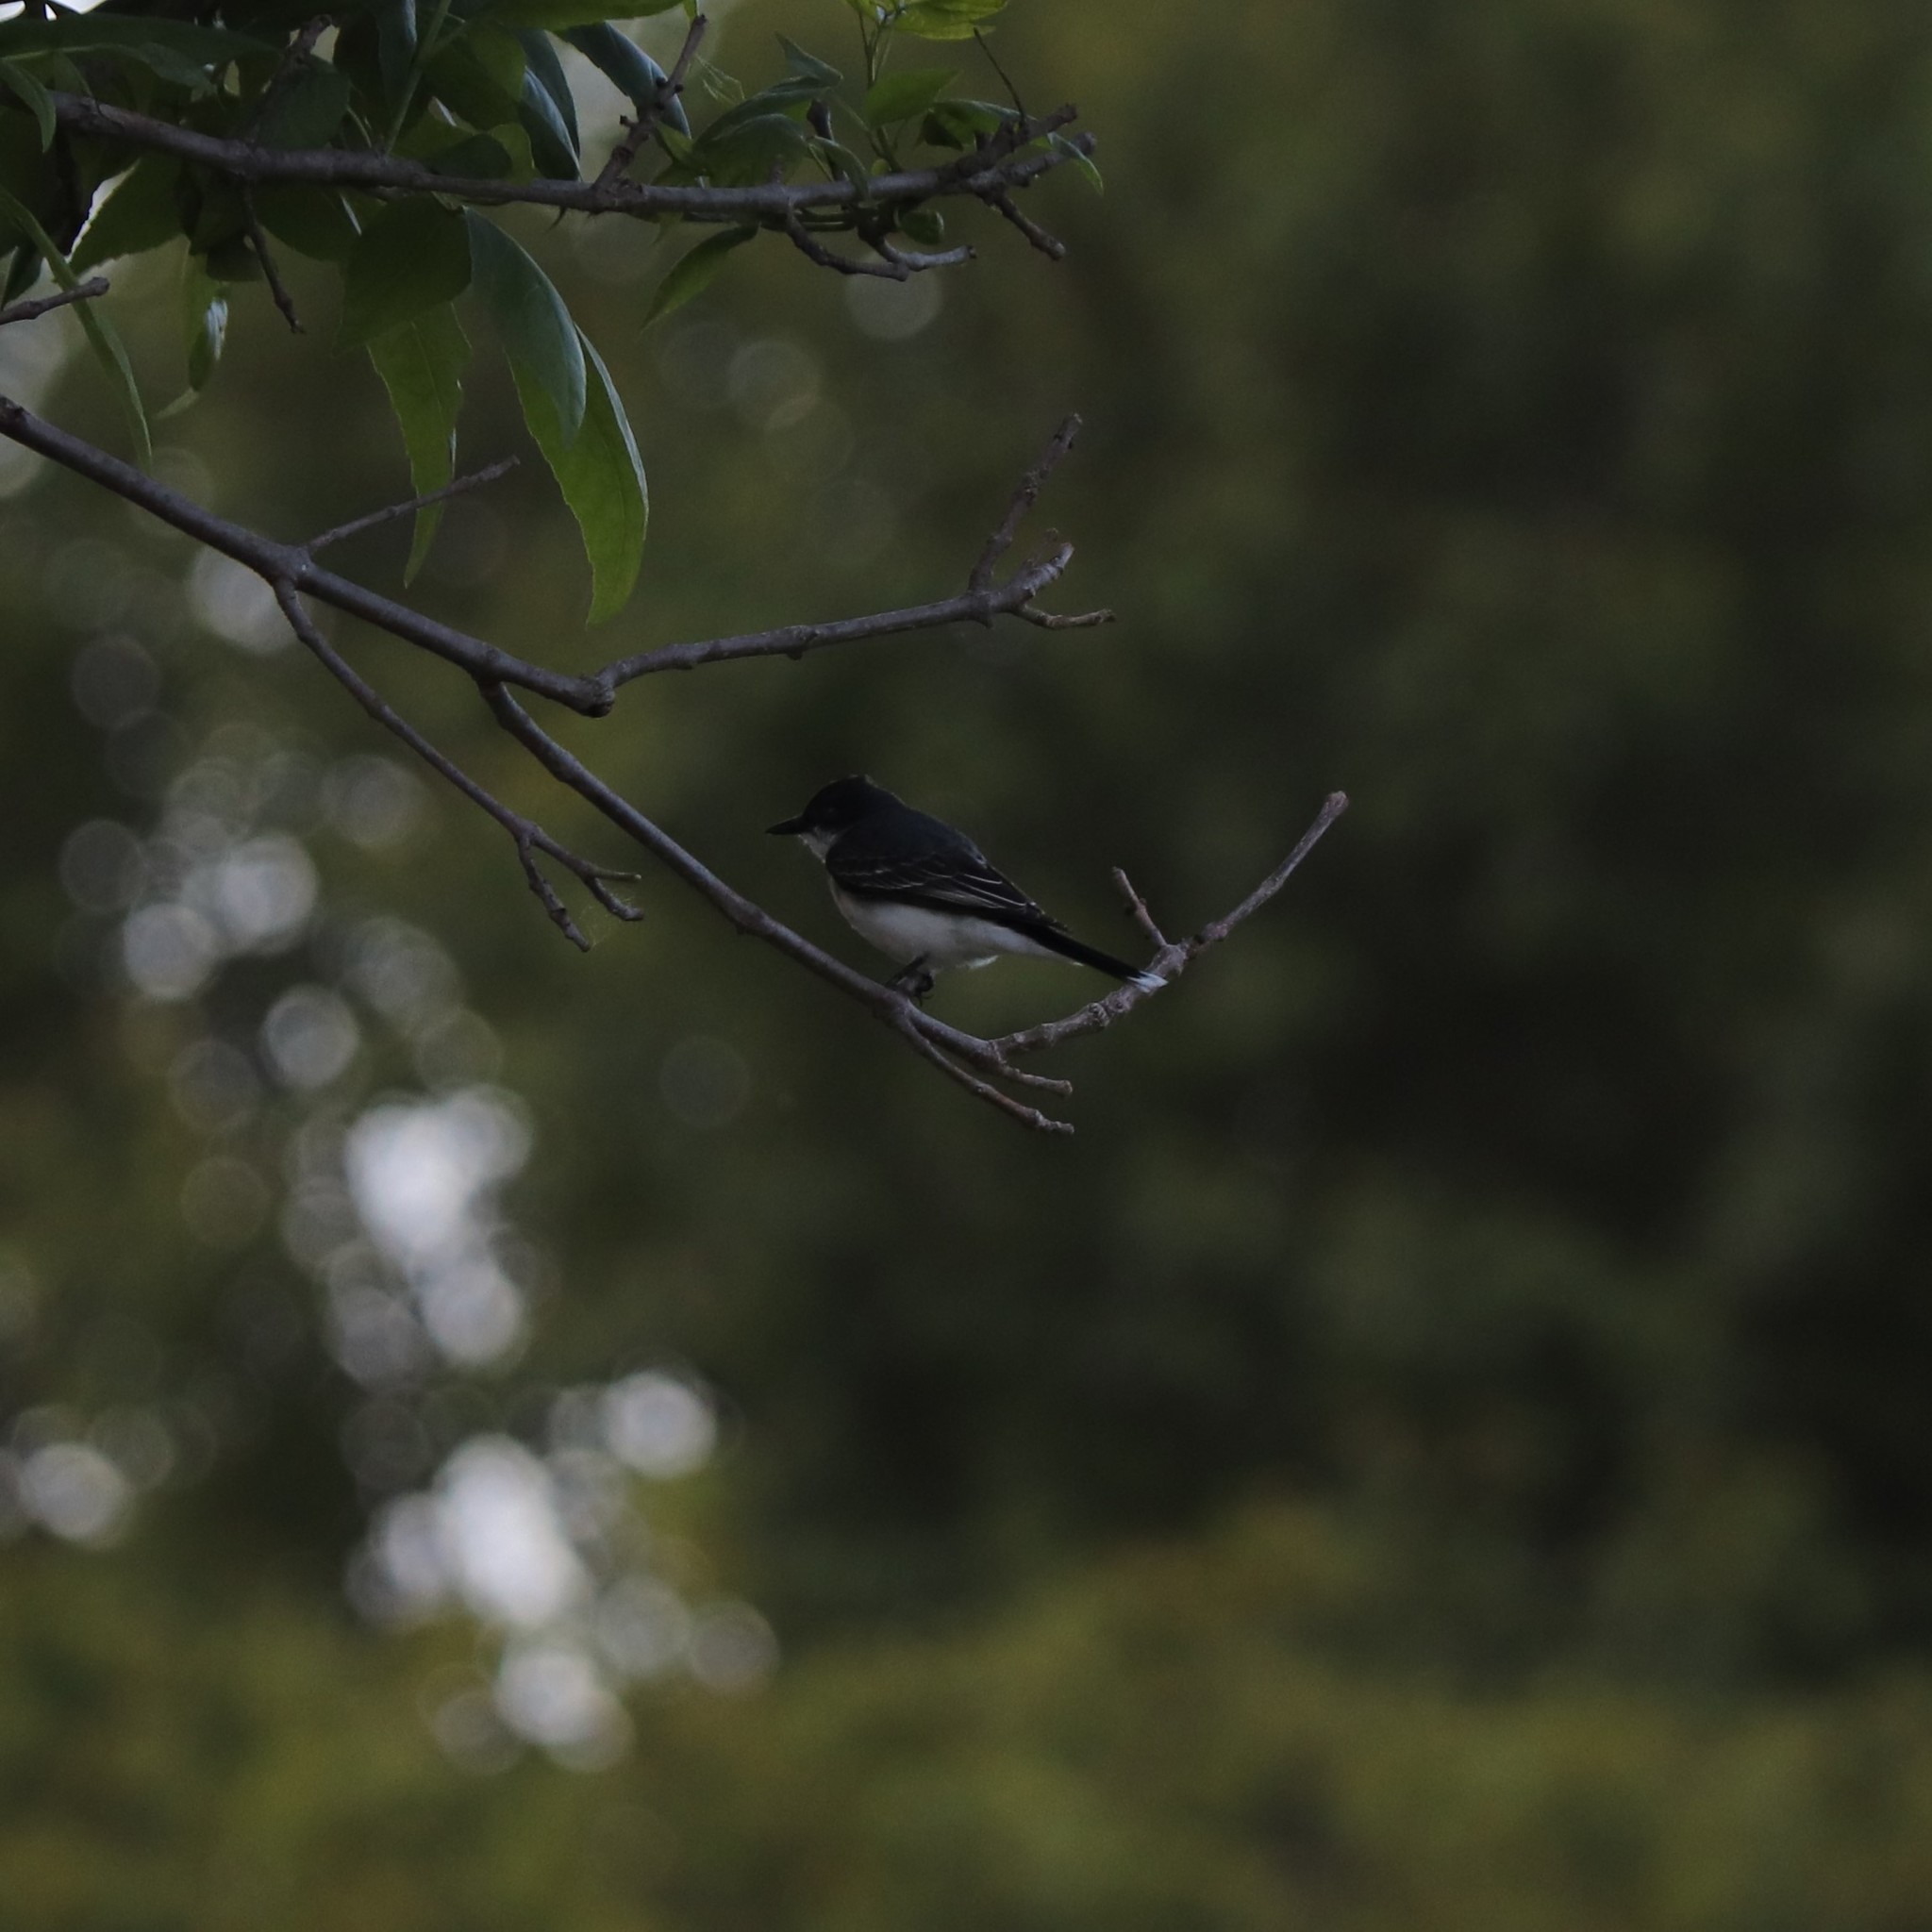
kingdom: Animalia
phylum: Chordata
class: Aves
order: Passeriformes
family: Tyrannidae
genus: Tyrannus
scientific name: Tyrannus tyrannus
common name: Eastern kingbird
